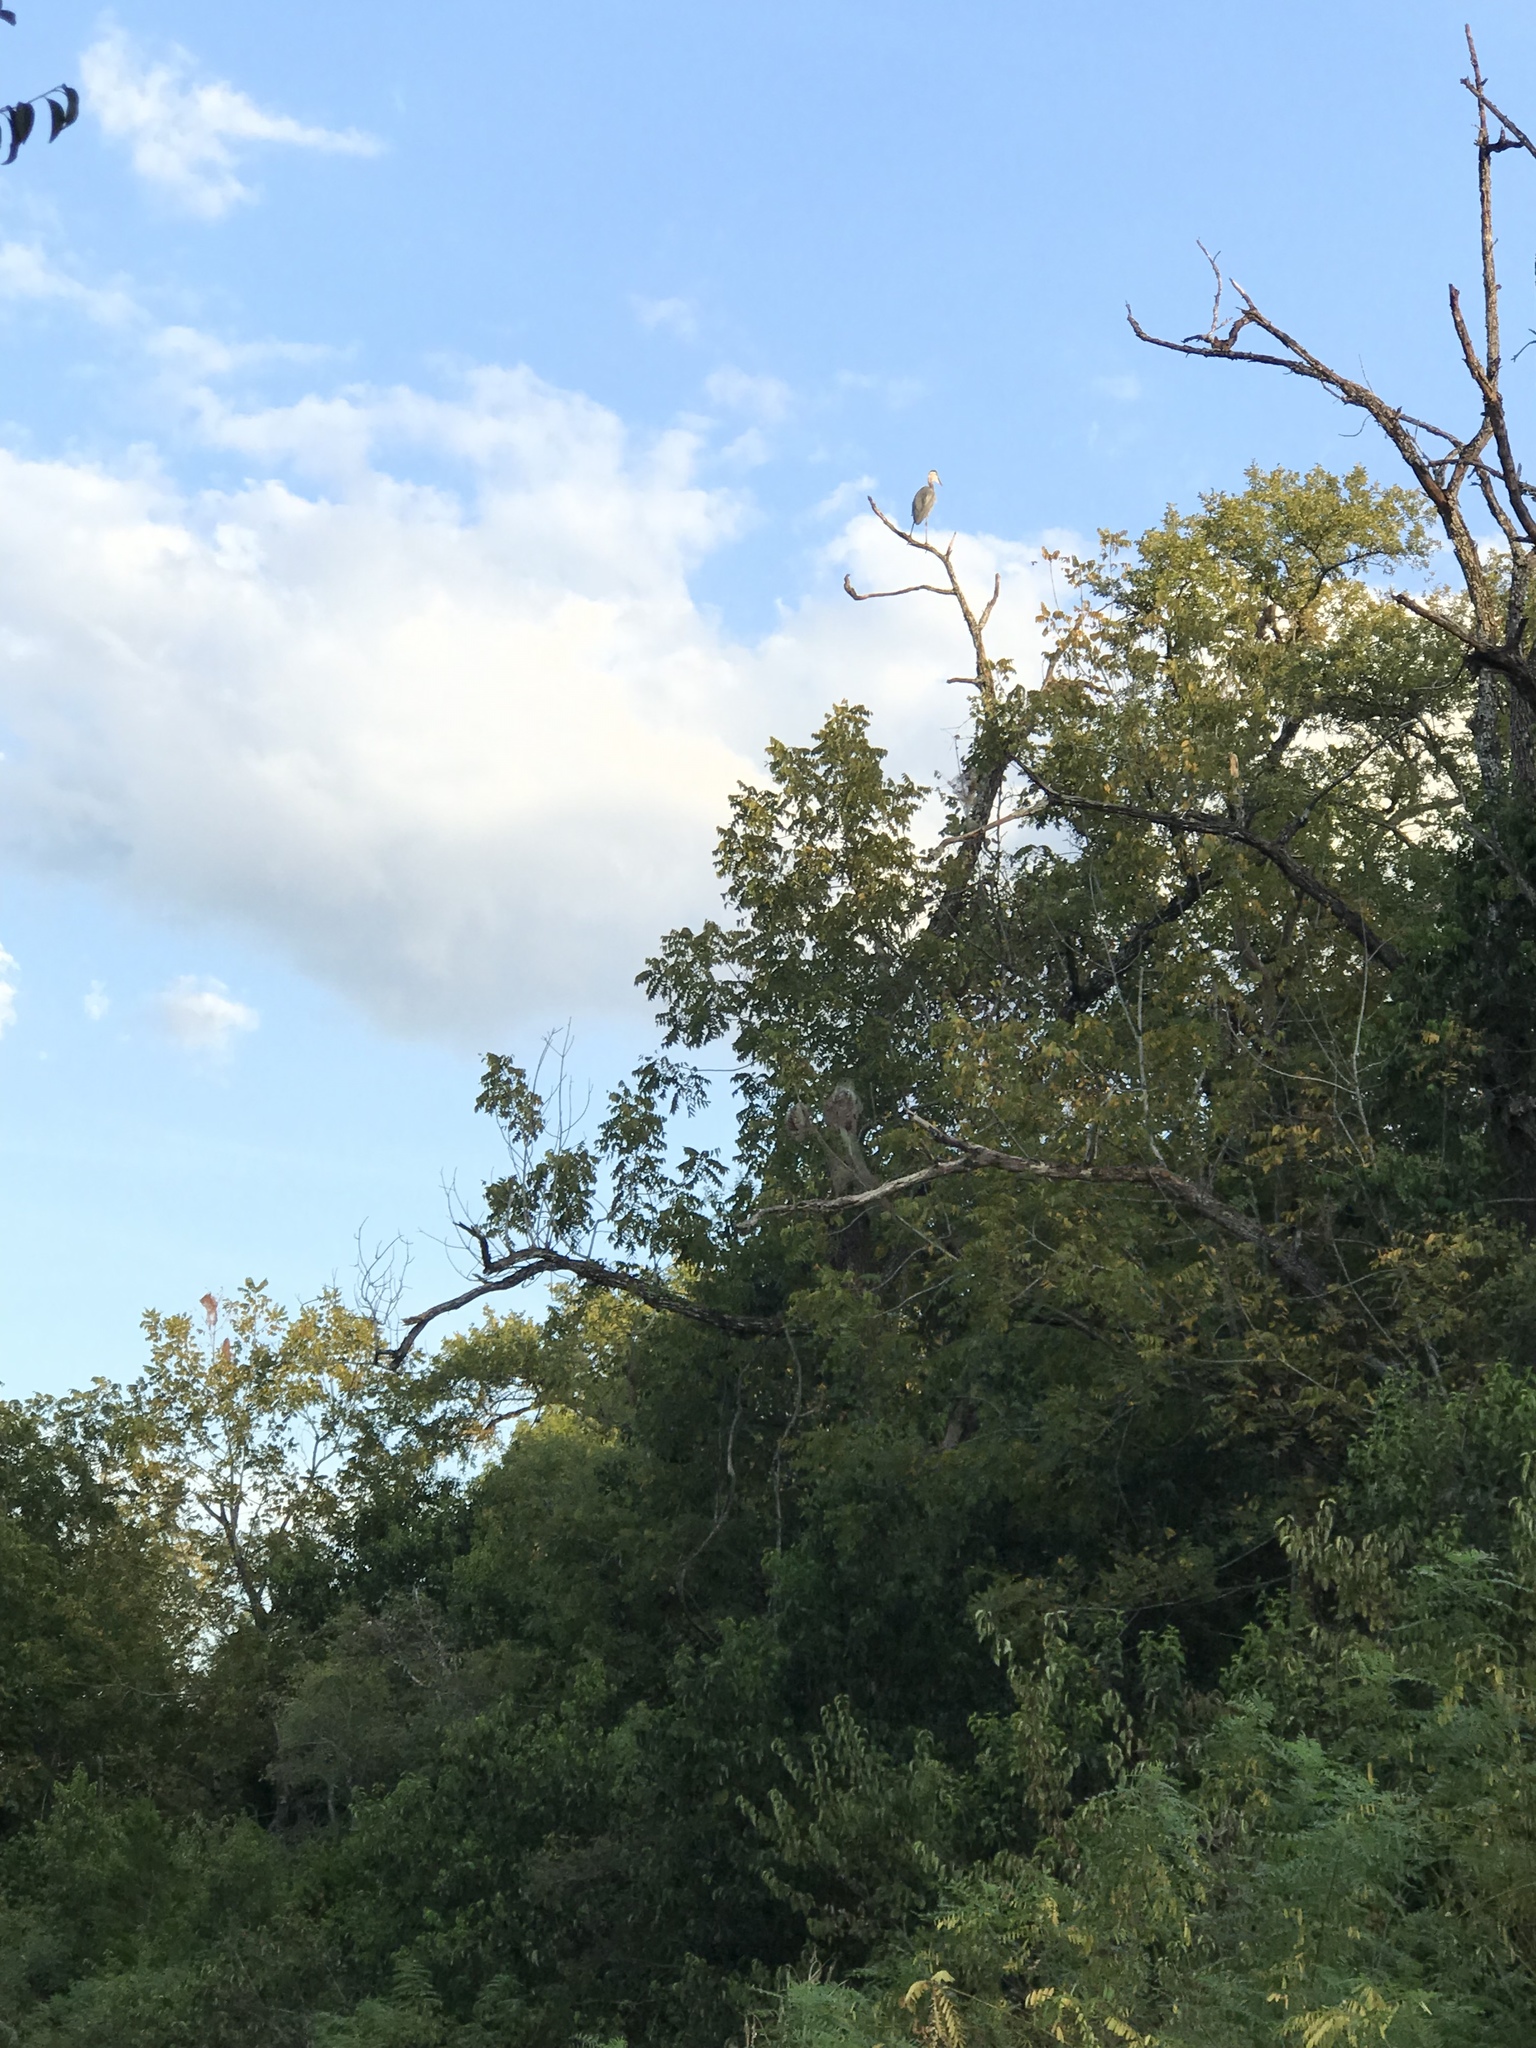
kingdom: Animalia
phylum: Chordata
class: Aves
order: Pelecaniformes
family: Ardeidae
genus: Ardea
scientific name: Ardea herodias
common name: Great blue heron
